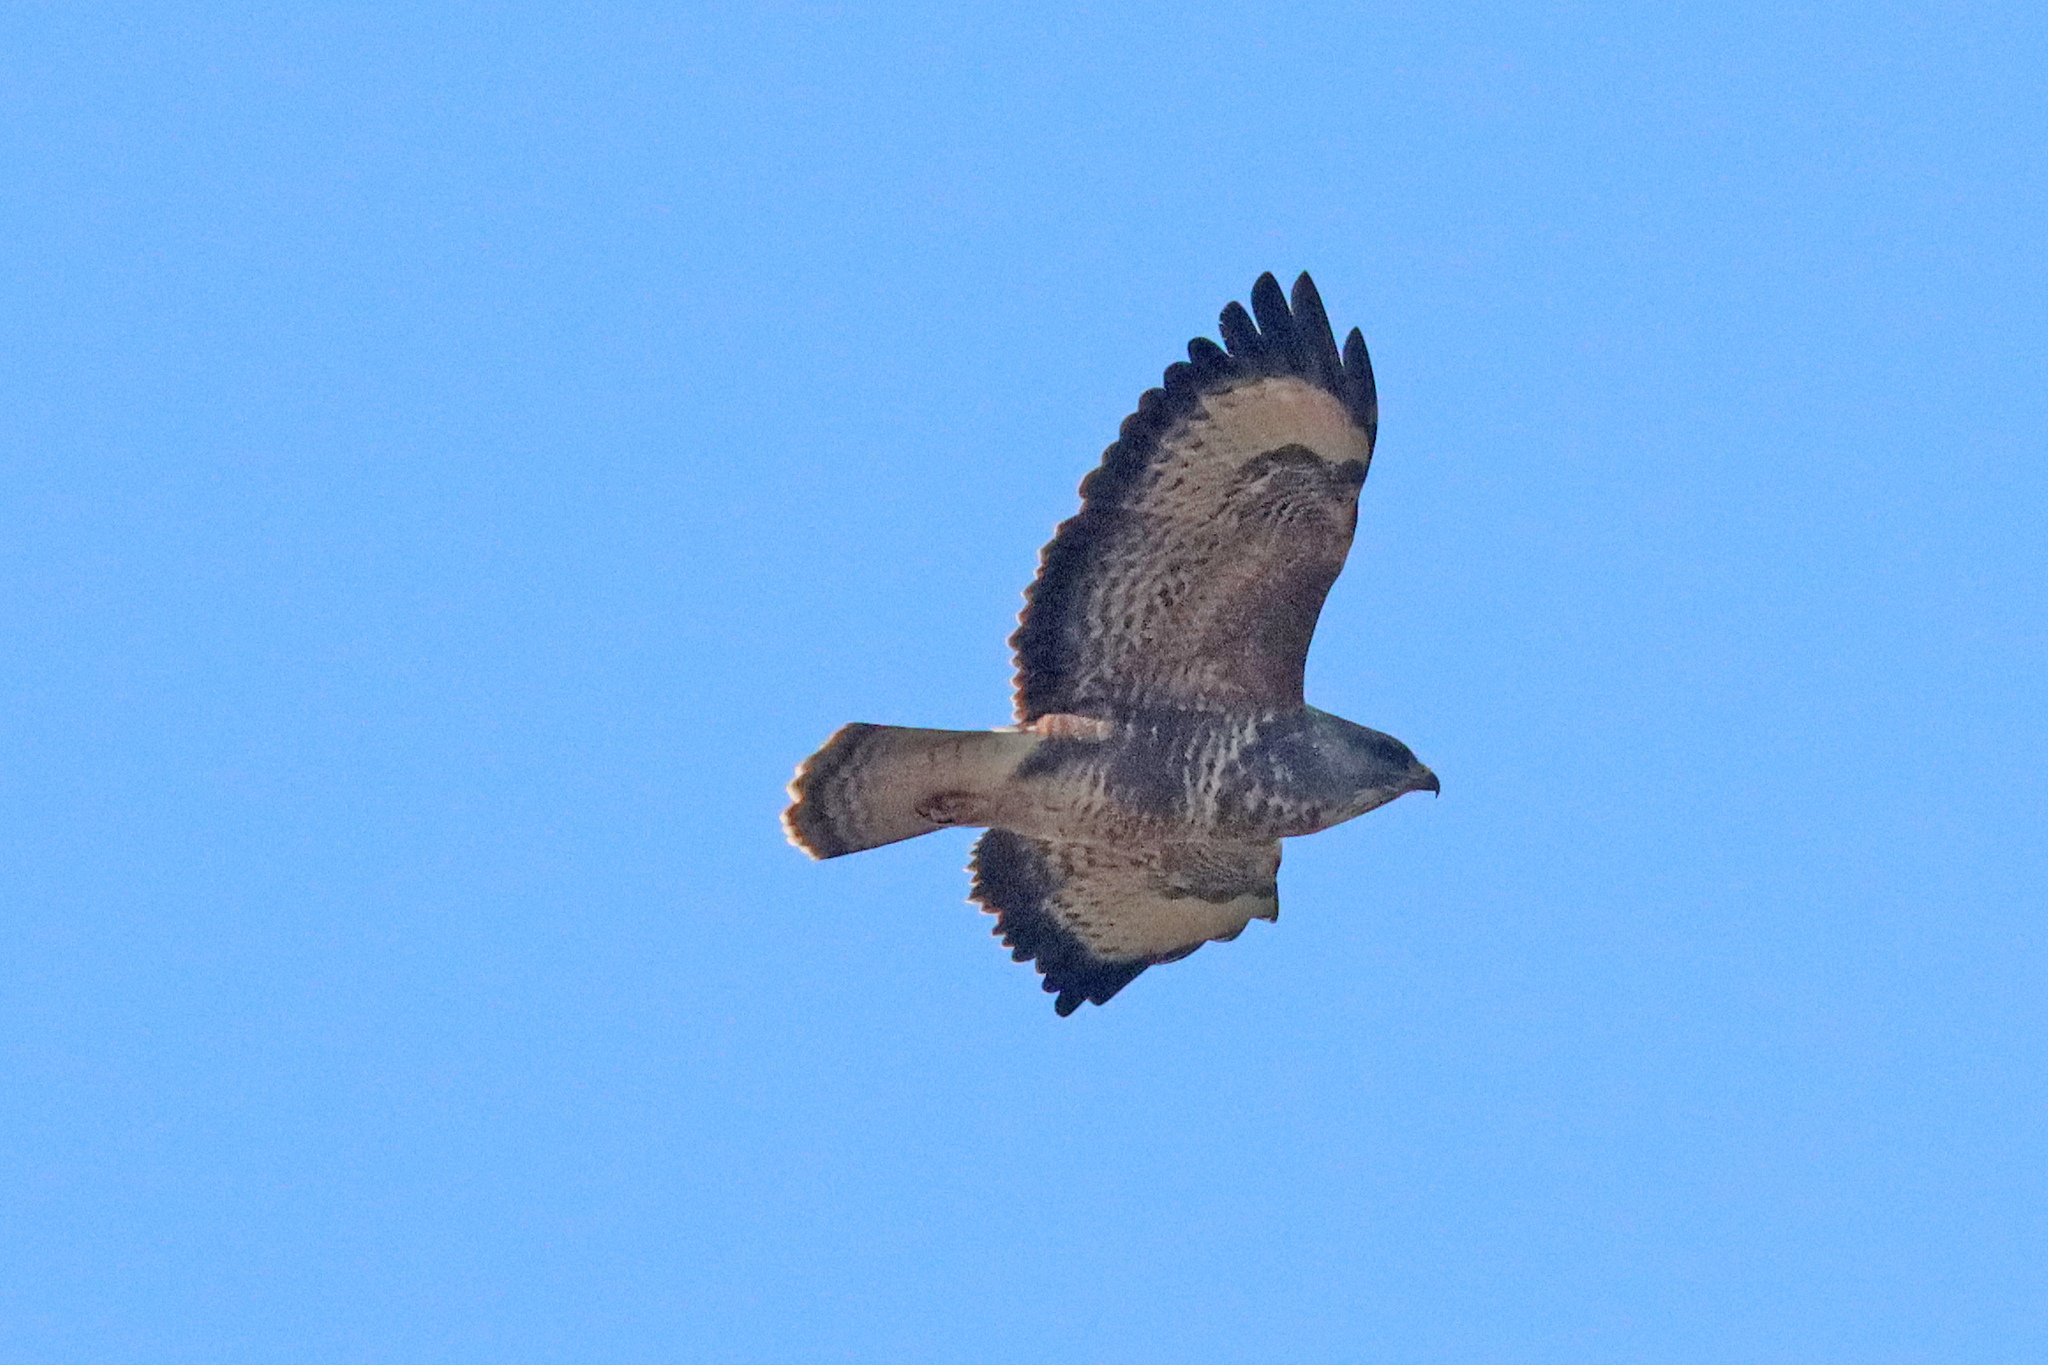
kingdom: Animalia
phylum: Chordata
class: Aves
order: Accipitriformes
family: Accipitridae
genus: Buteo
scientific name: Buteo buteo
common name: Common buzzard
